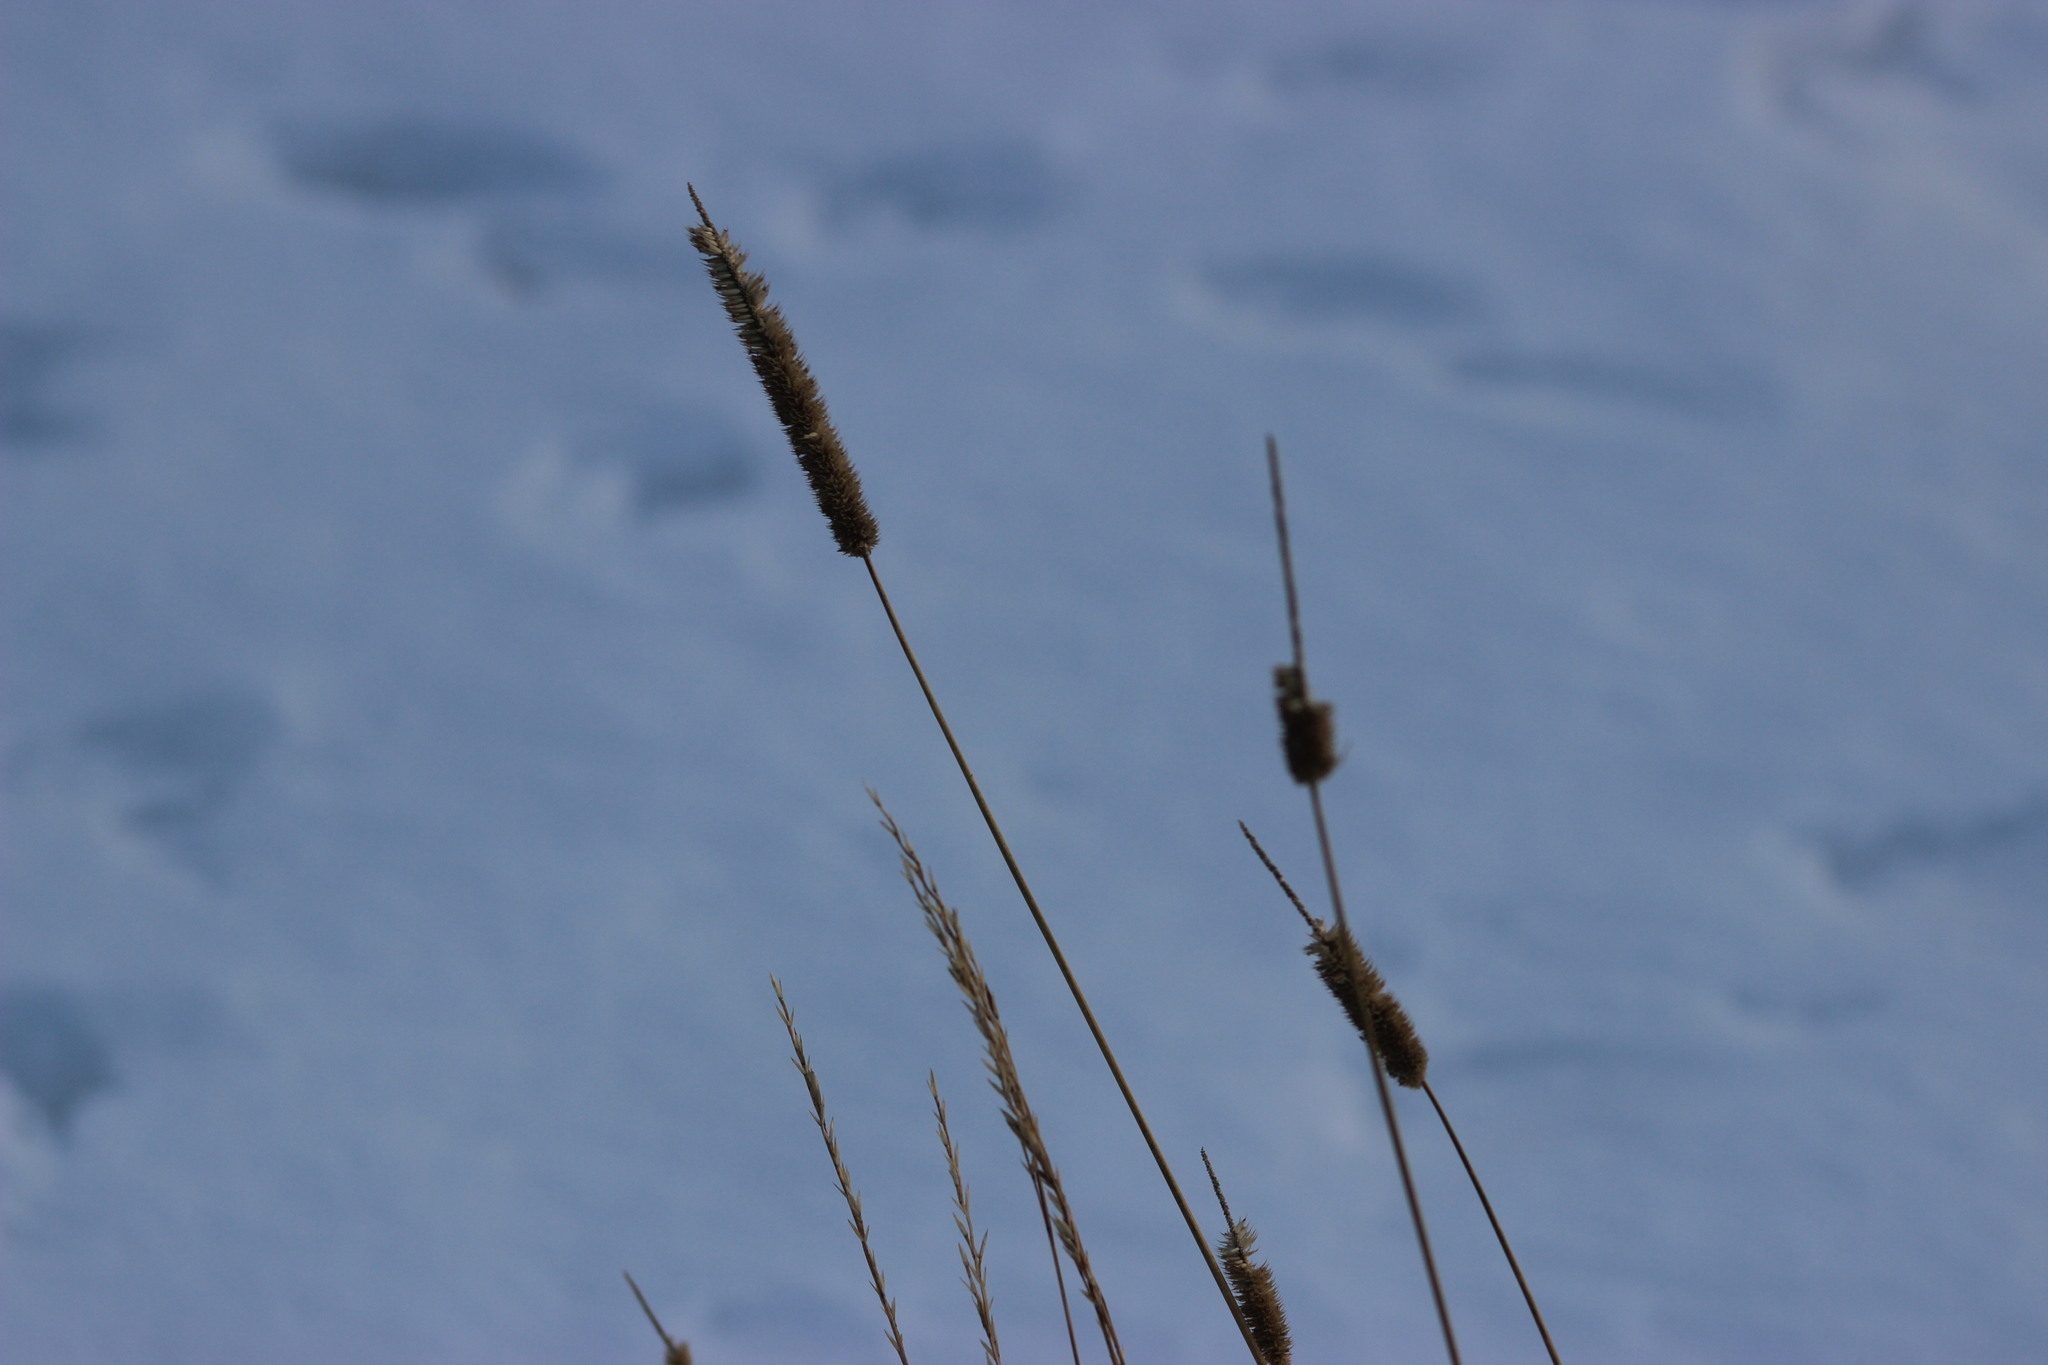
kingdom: Plantae
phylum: Tracheophyta
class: Liliopsida
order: Poales
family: Poaceae
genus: Phleum
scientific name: Phleum pratense
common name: Timothy grass
